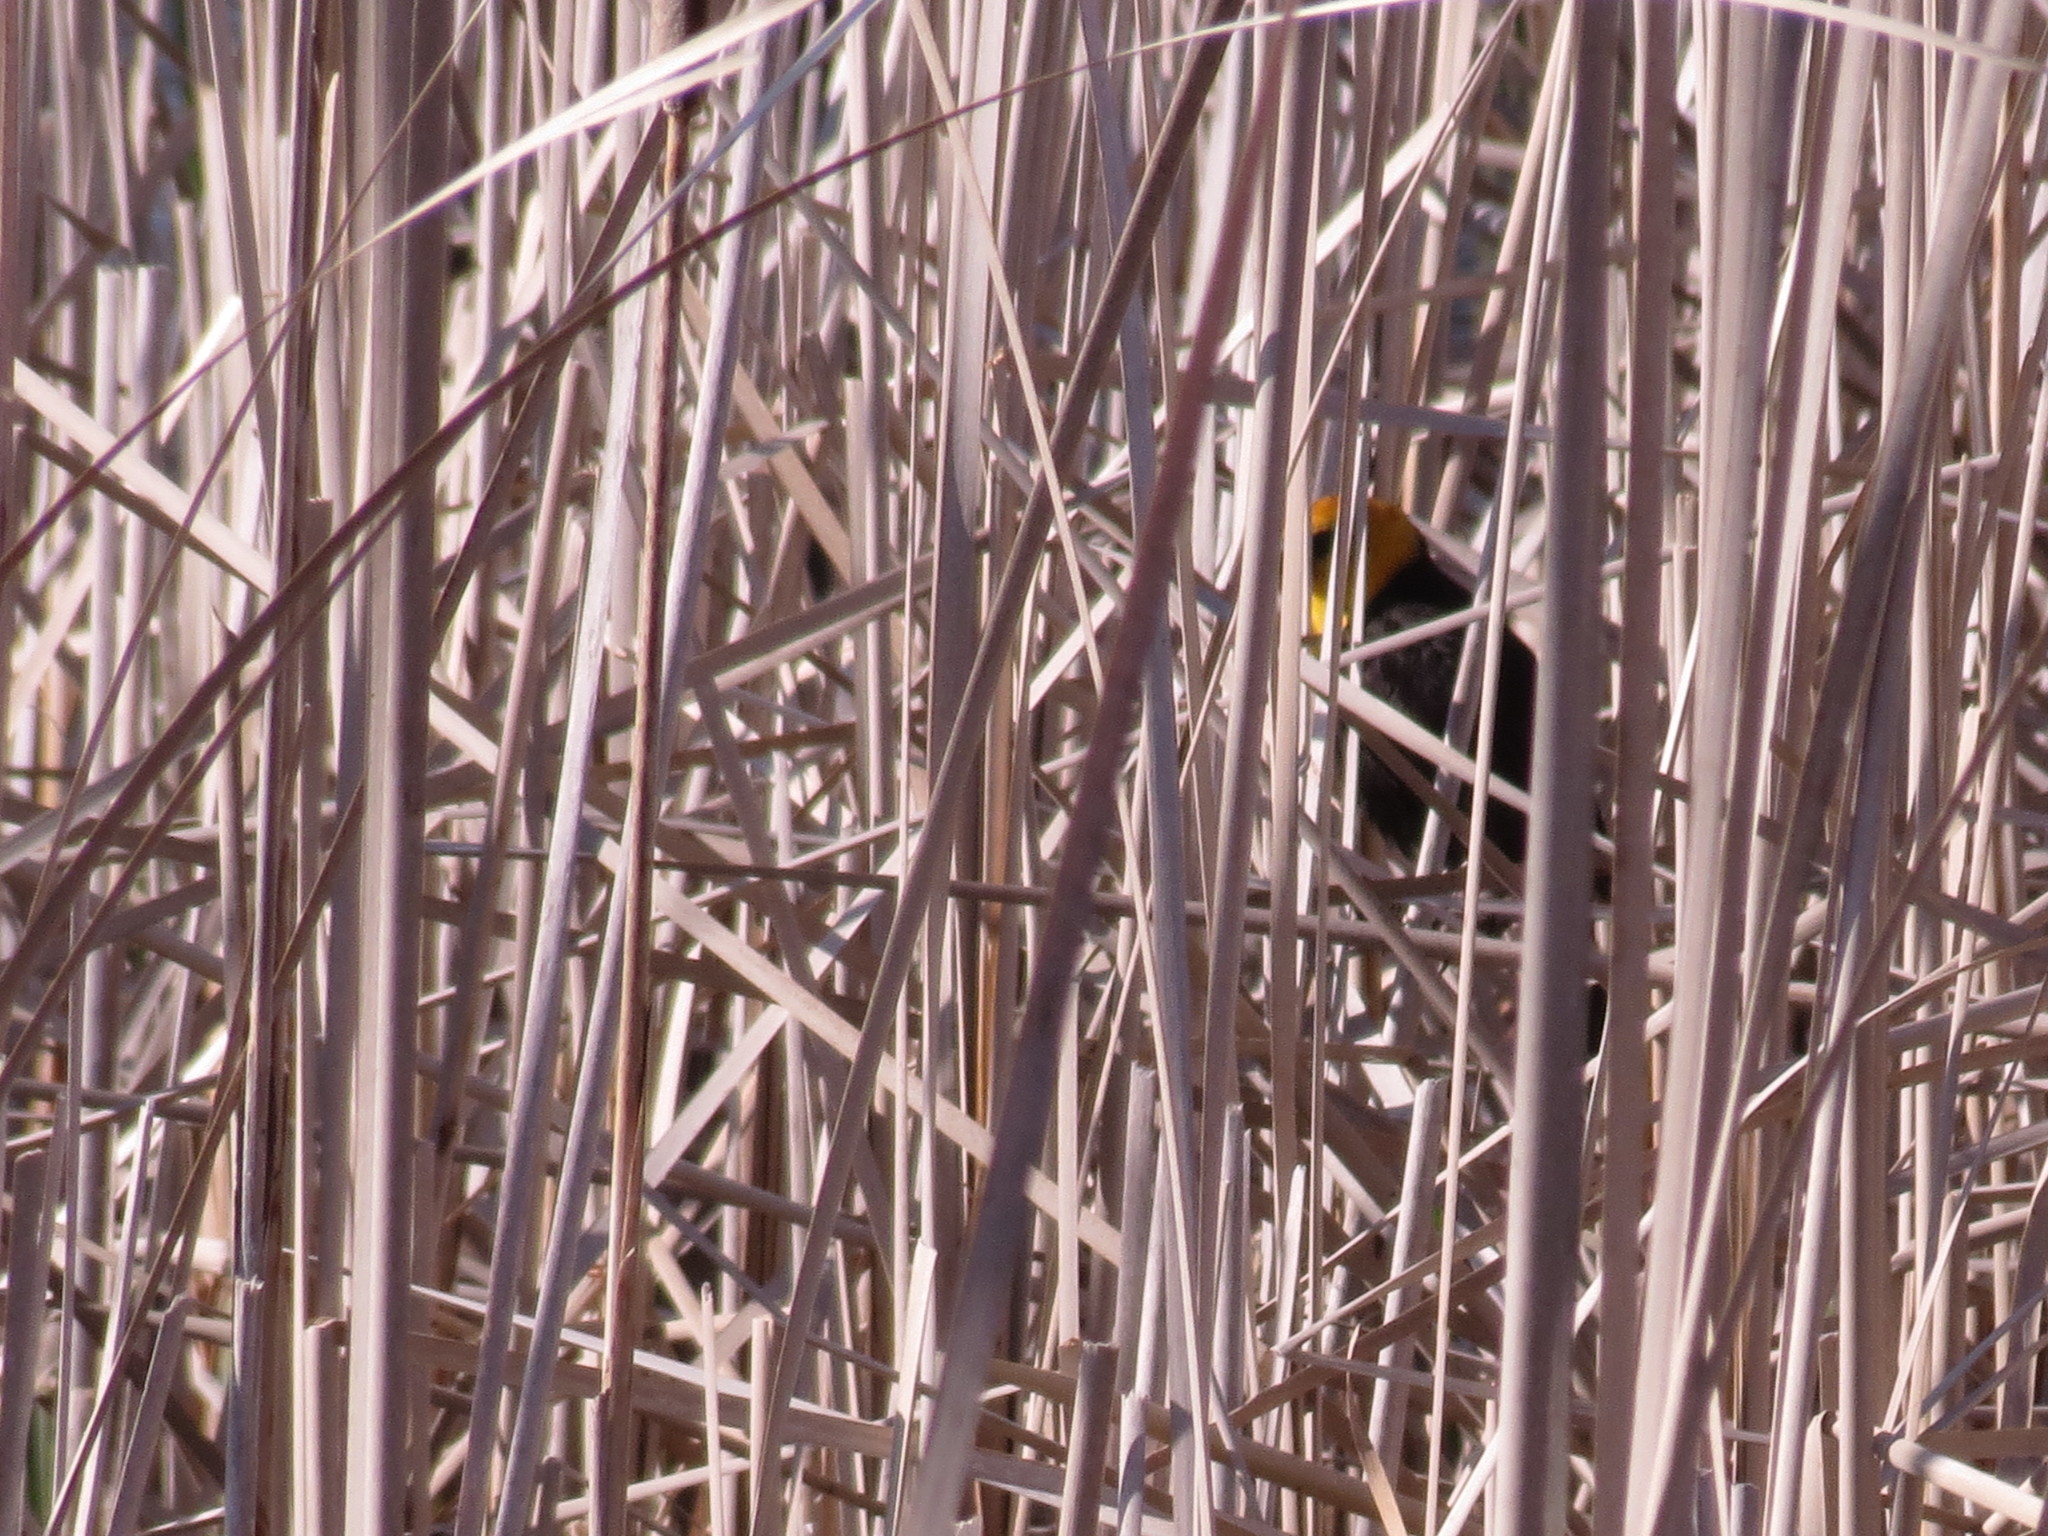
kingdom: Animalia
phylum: Chordata
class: Aves
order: Passeriformes
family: Icteridae
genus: Xanthocephalus
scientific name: Xanthocephalus xanthocephalus
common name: Yellow-headed blackbird
